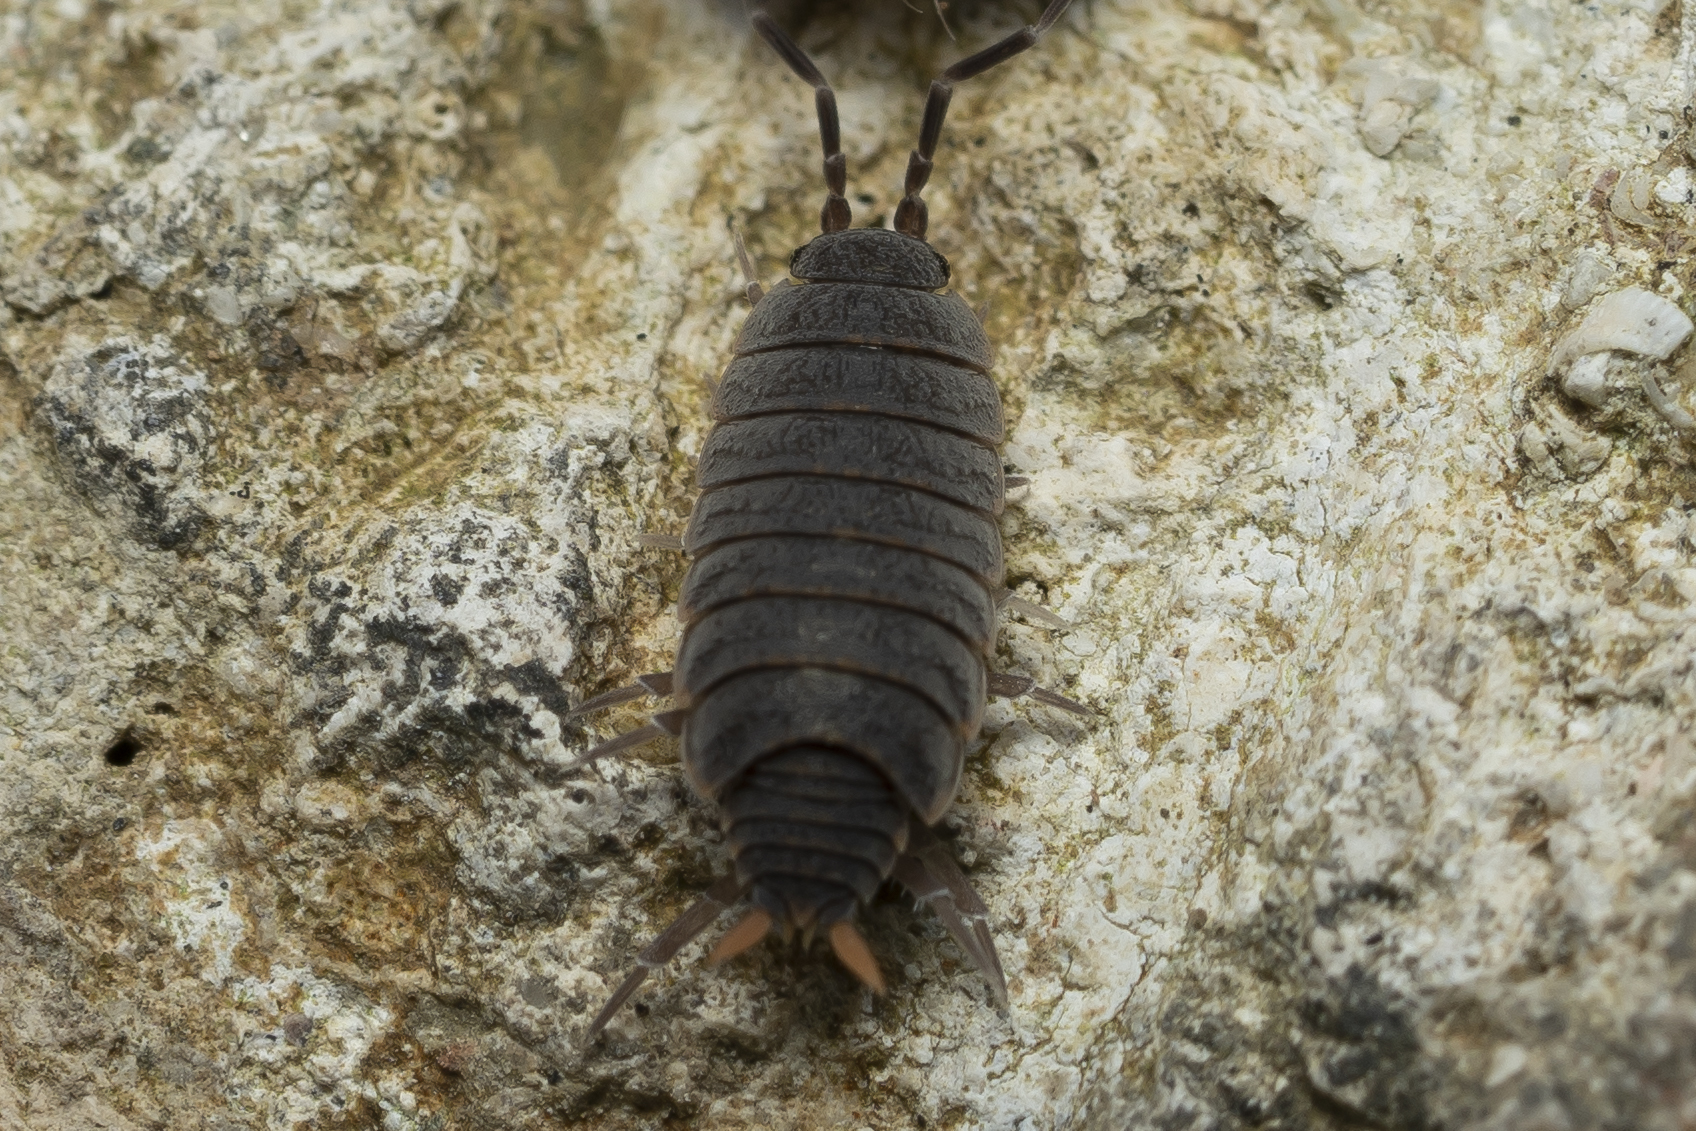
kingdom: Animalia
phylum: Arthropoda
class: Malacostraca
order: Isopoda
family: Porcellionidae
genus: Porcellionides
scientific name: Porcellionides pruinosus
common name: Plum woodlouse
